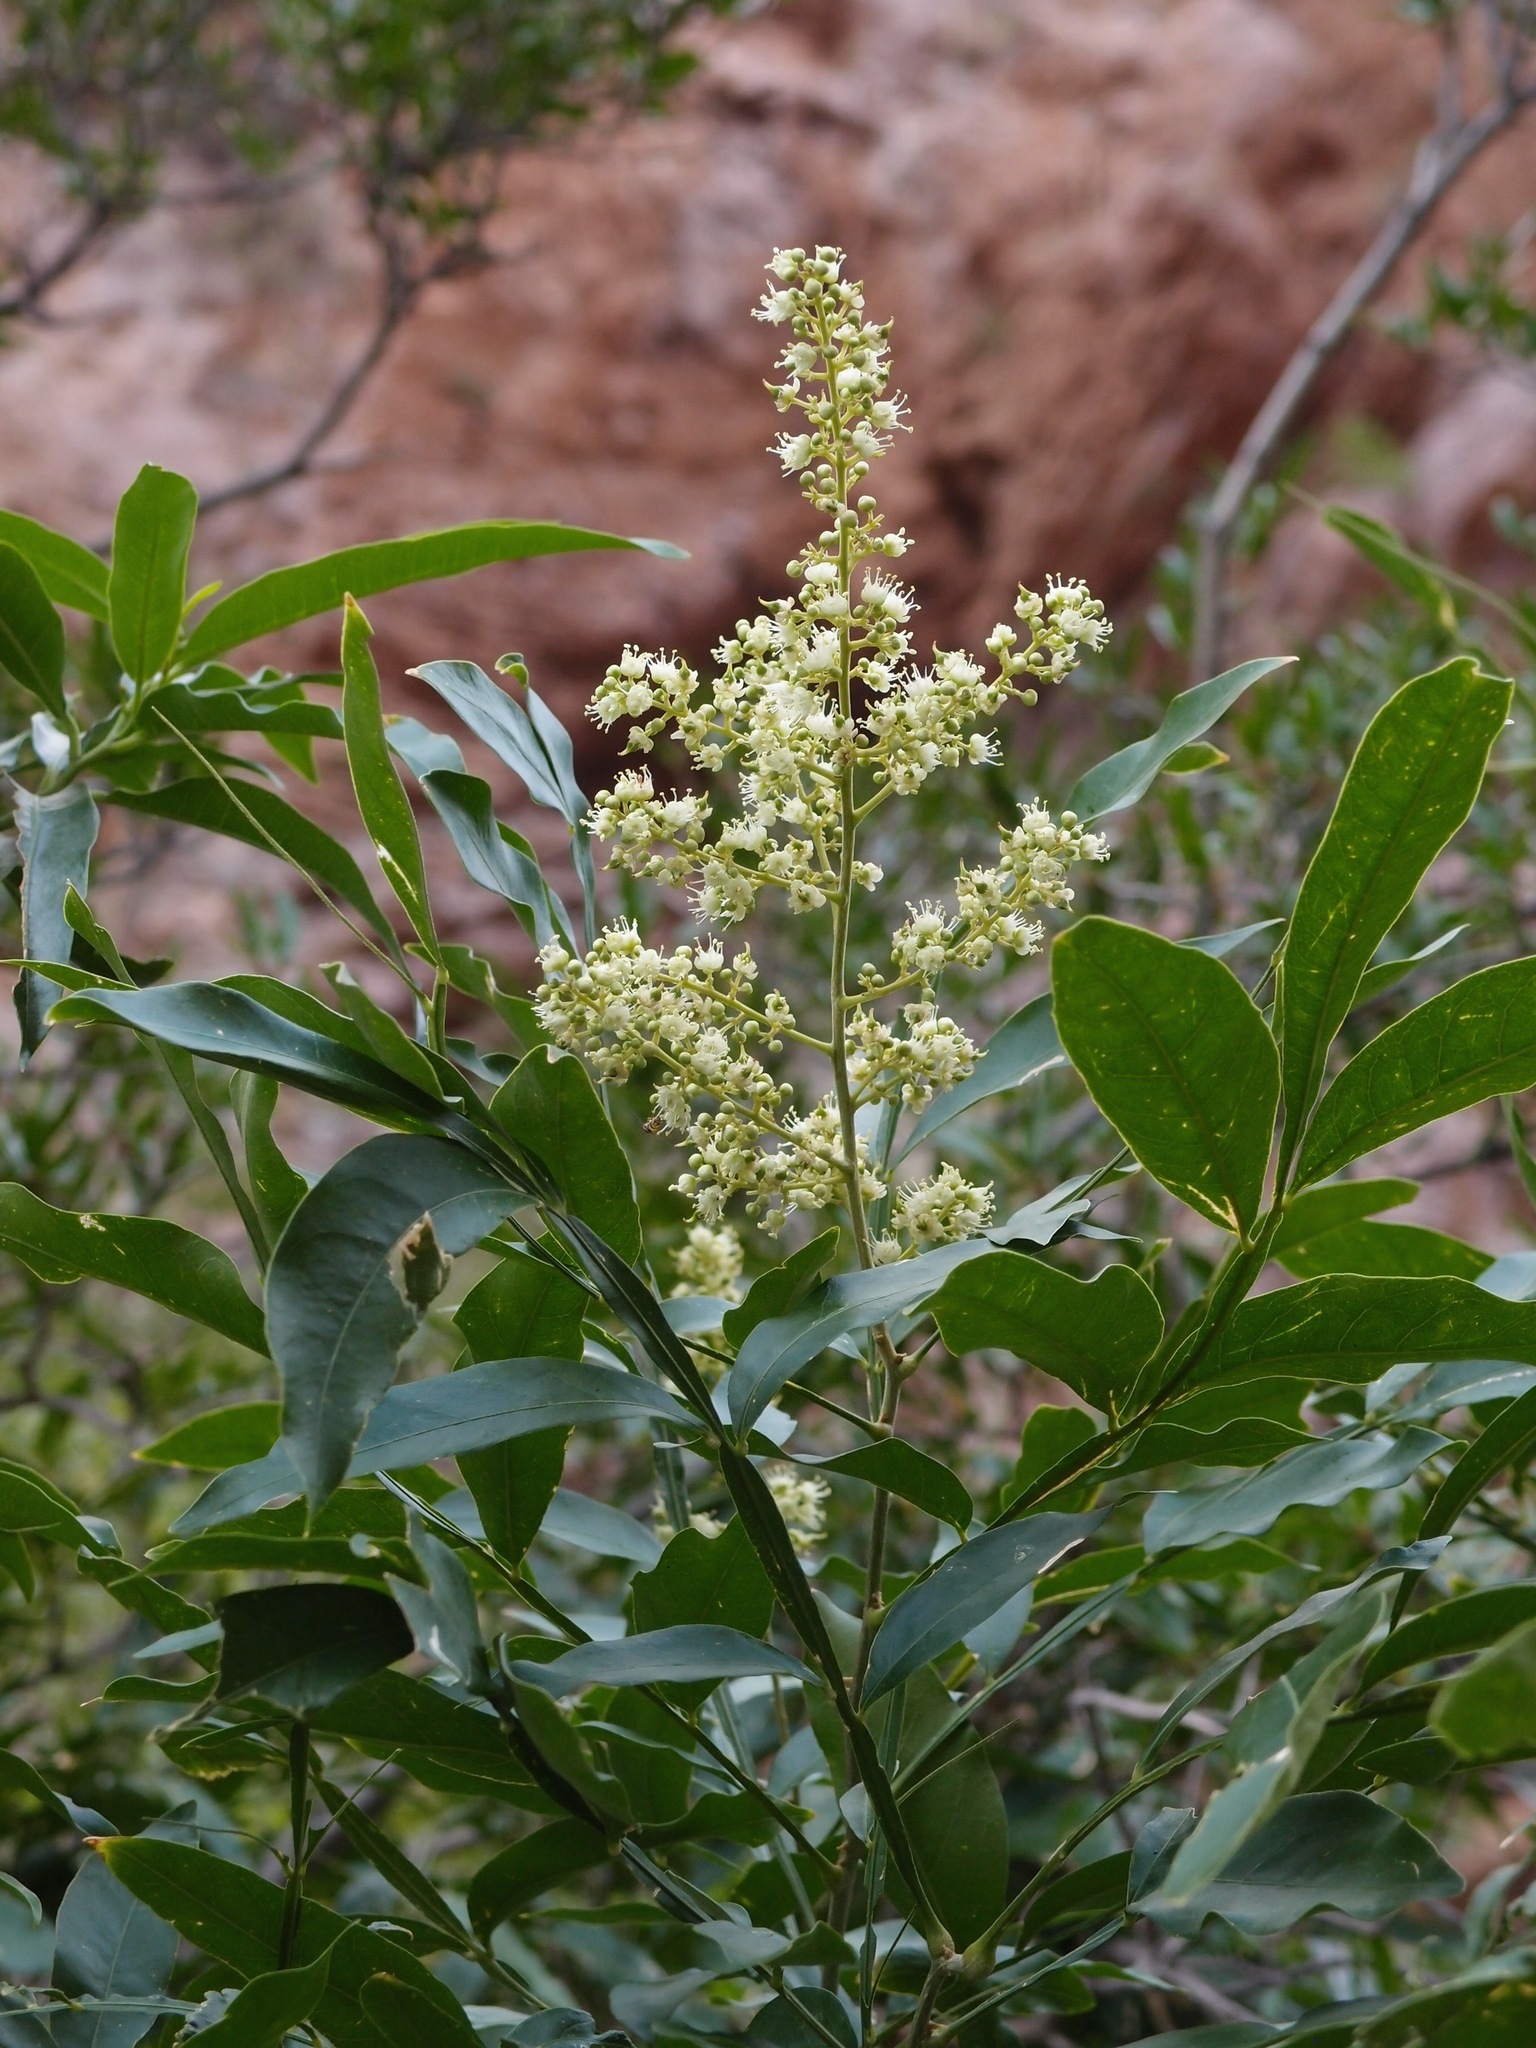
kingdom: Plantae
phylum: Tracheophyta
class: Magnoliopsida
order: Sapindales
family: Sapindaceae
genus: Sapindus
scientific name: Sapindus saponaria
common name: Wingleaf soapberry
